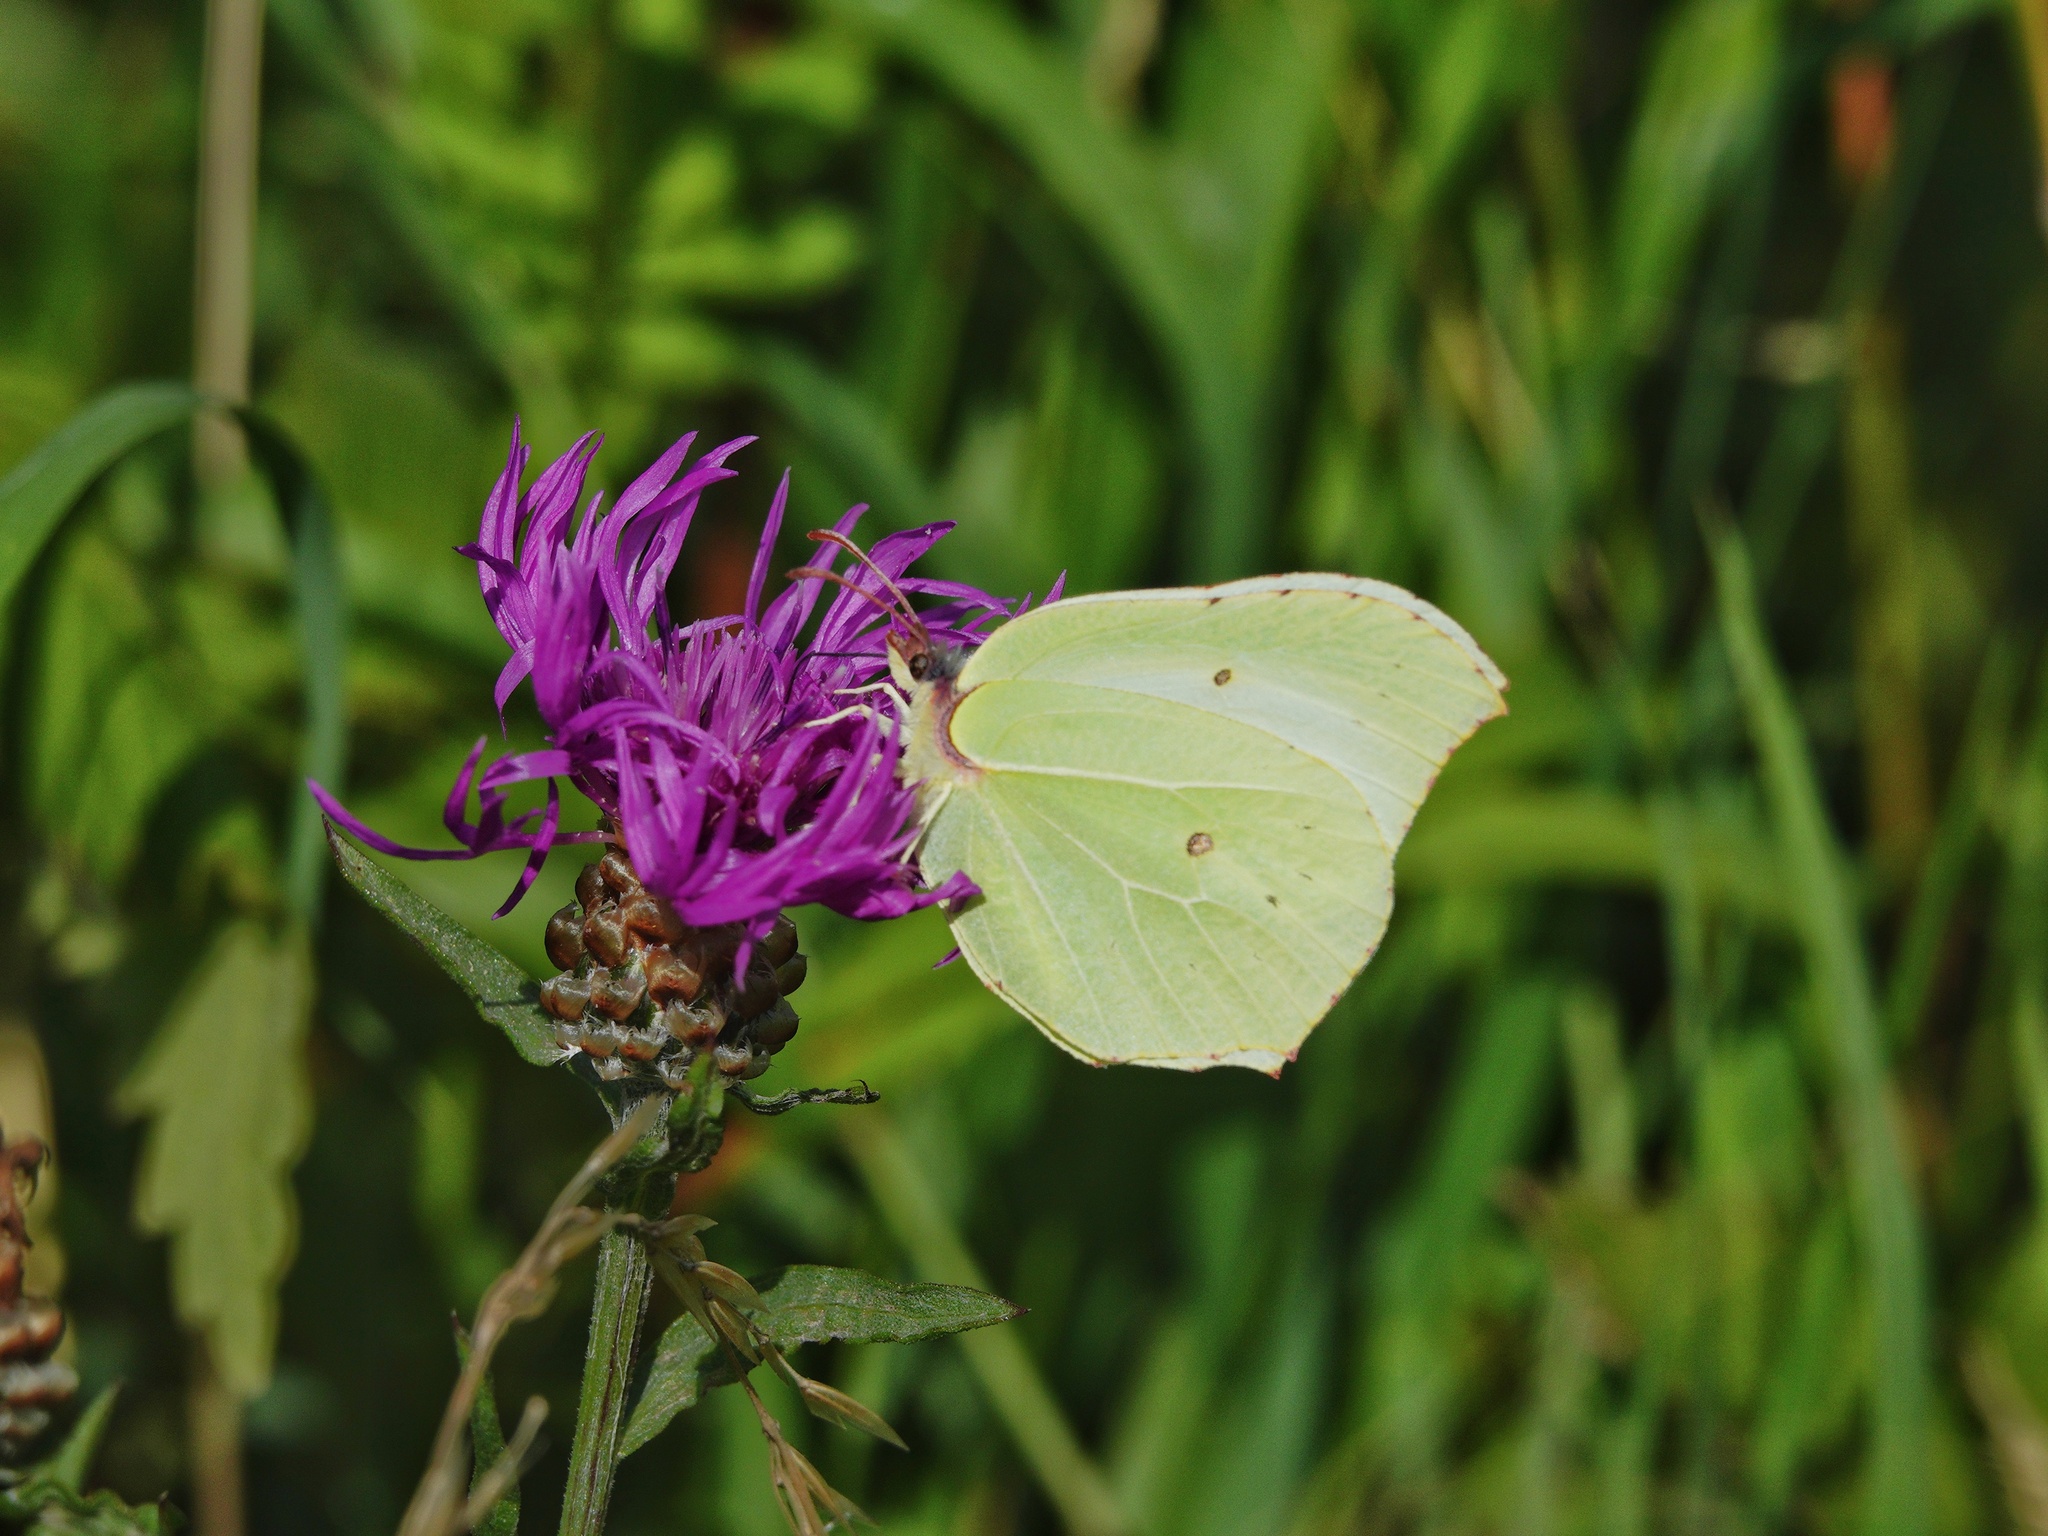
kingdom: Animalia
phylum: Arthropoda
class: Insecta
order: Lepidoptera
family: Pieridae
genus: Gonepteryx
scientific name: Gonepteryx rhamni
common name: Brimstone
